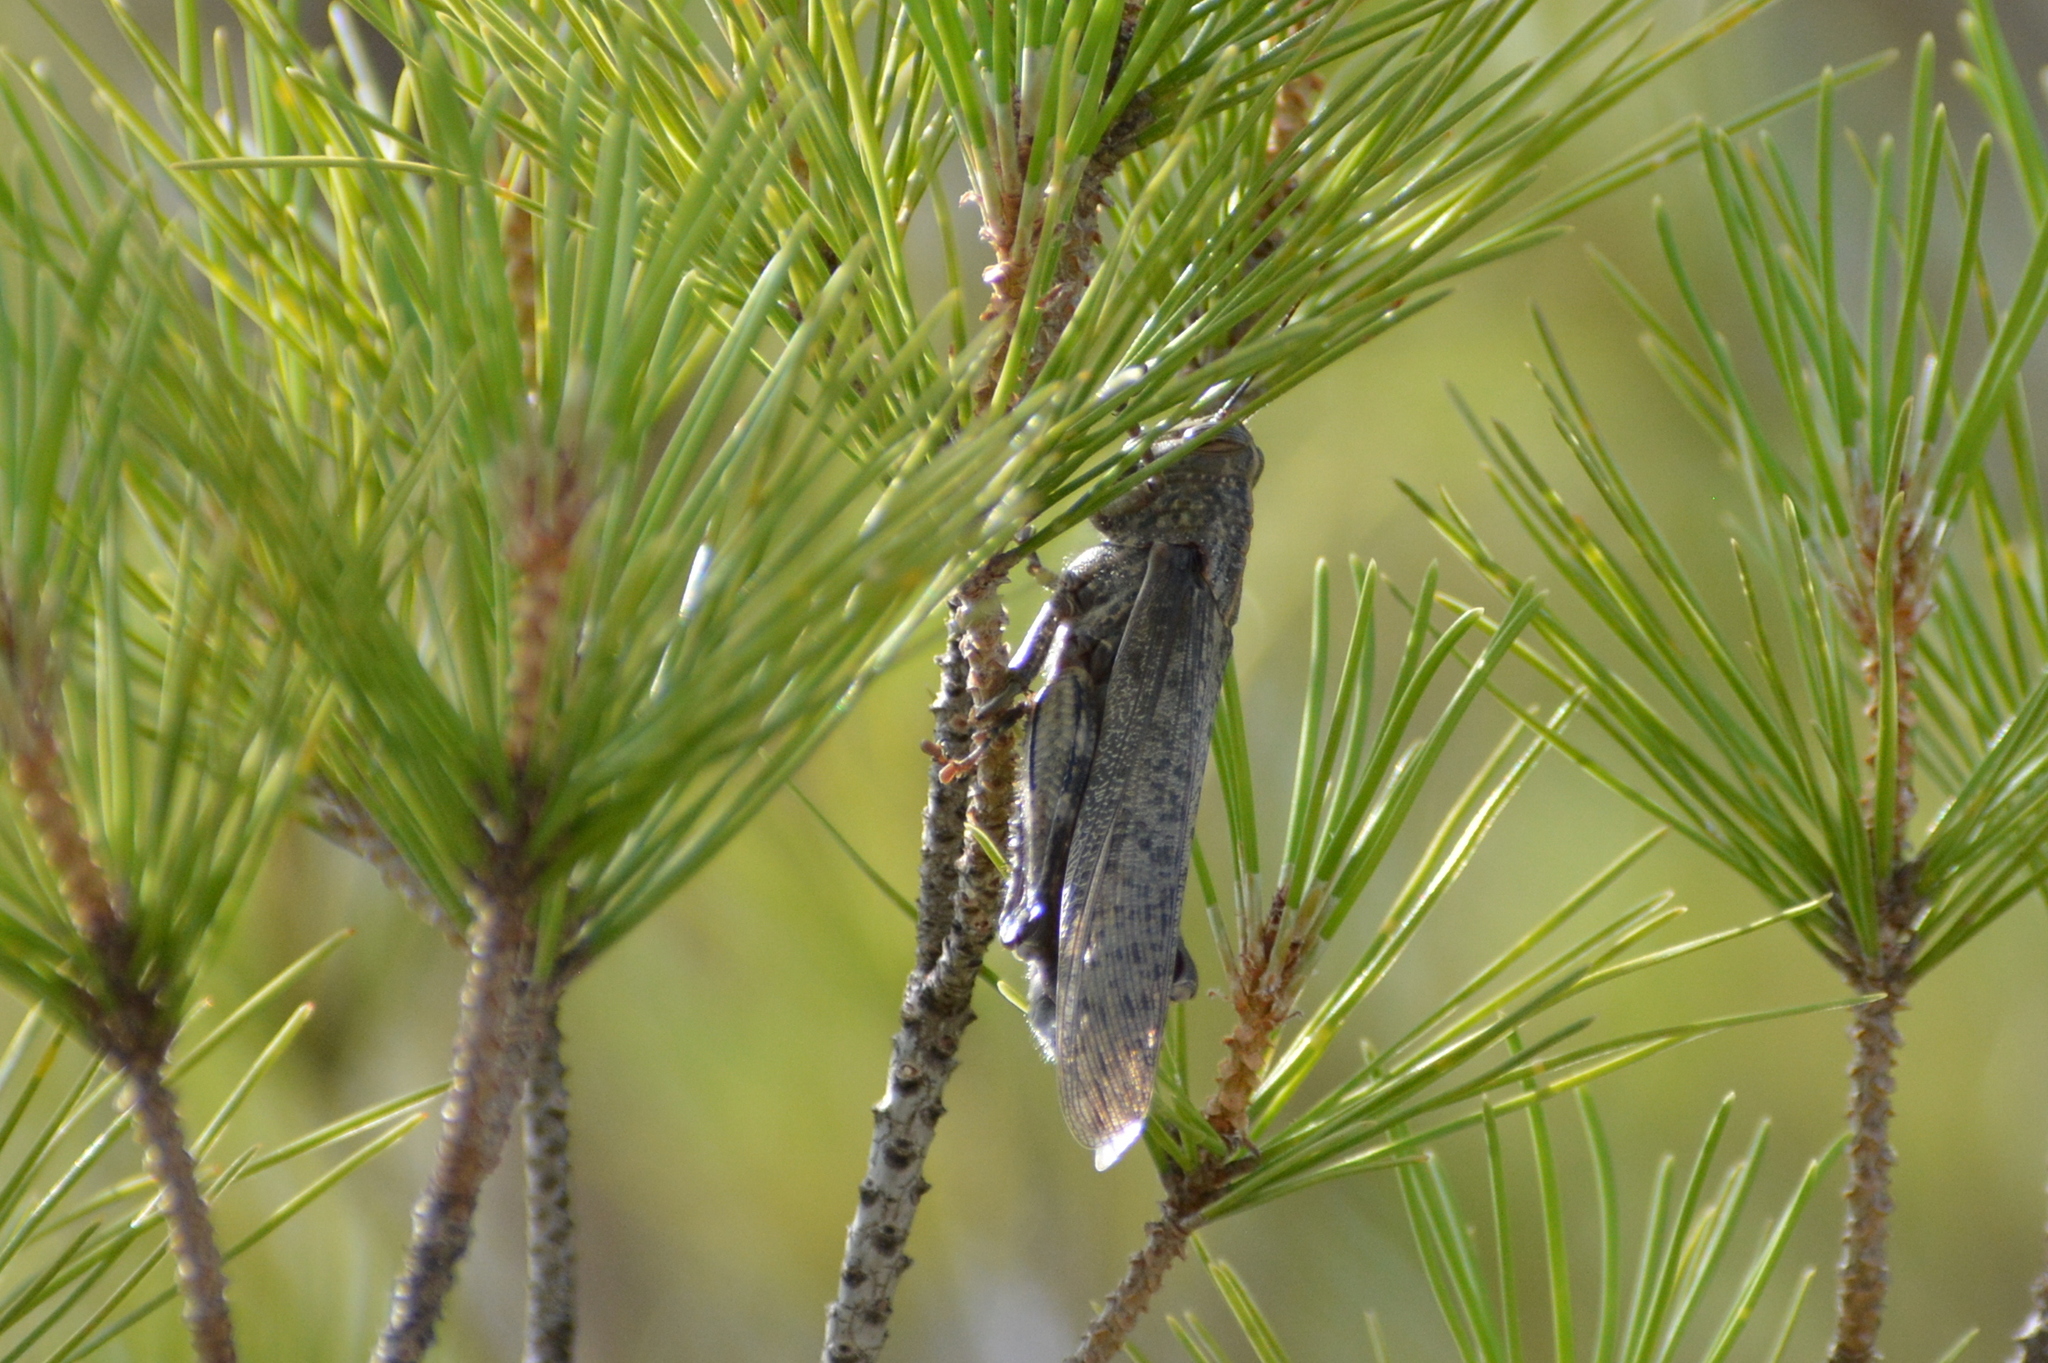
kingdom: Animalia
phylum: Arthropoda
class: Insecta
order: Orthoptera
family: Acrididae
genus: Anacridium
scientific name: Anacridium aegyptium
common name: Egyptian grasshopper
